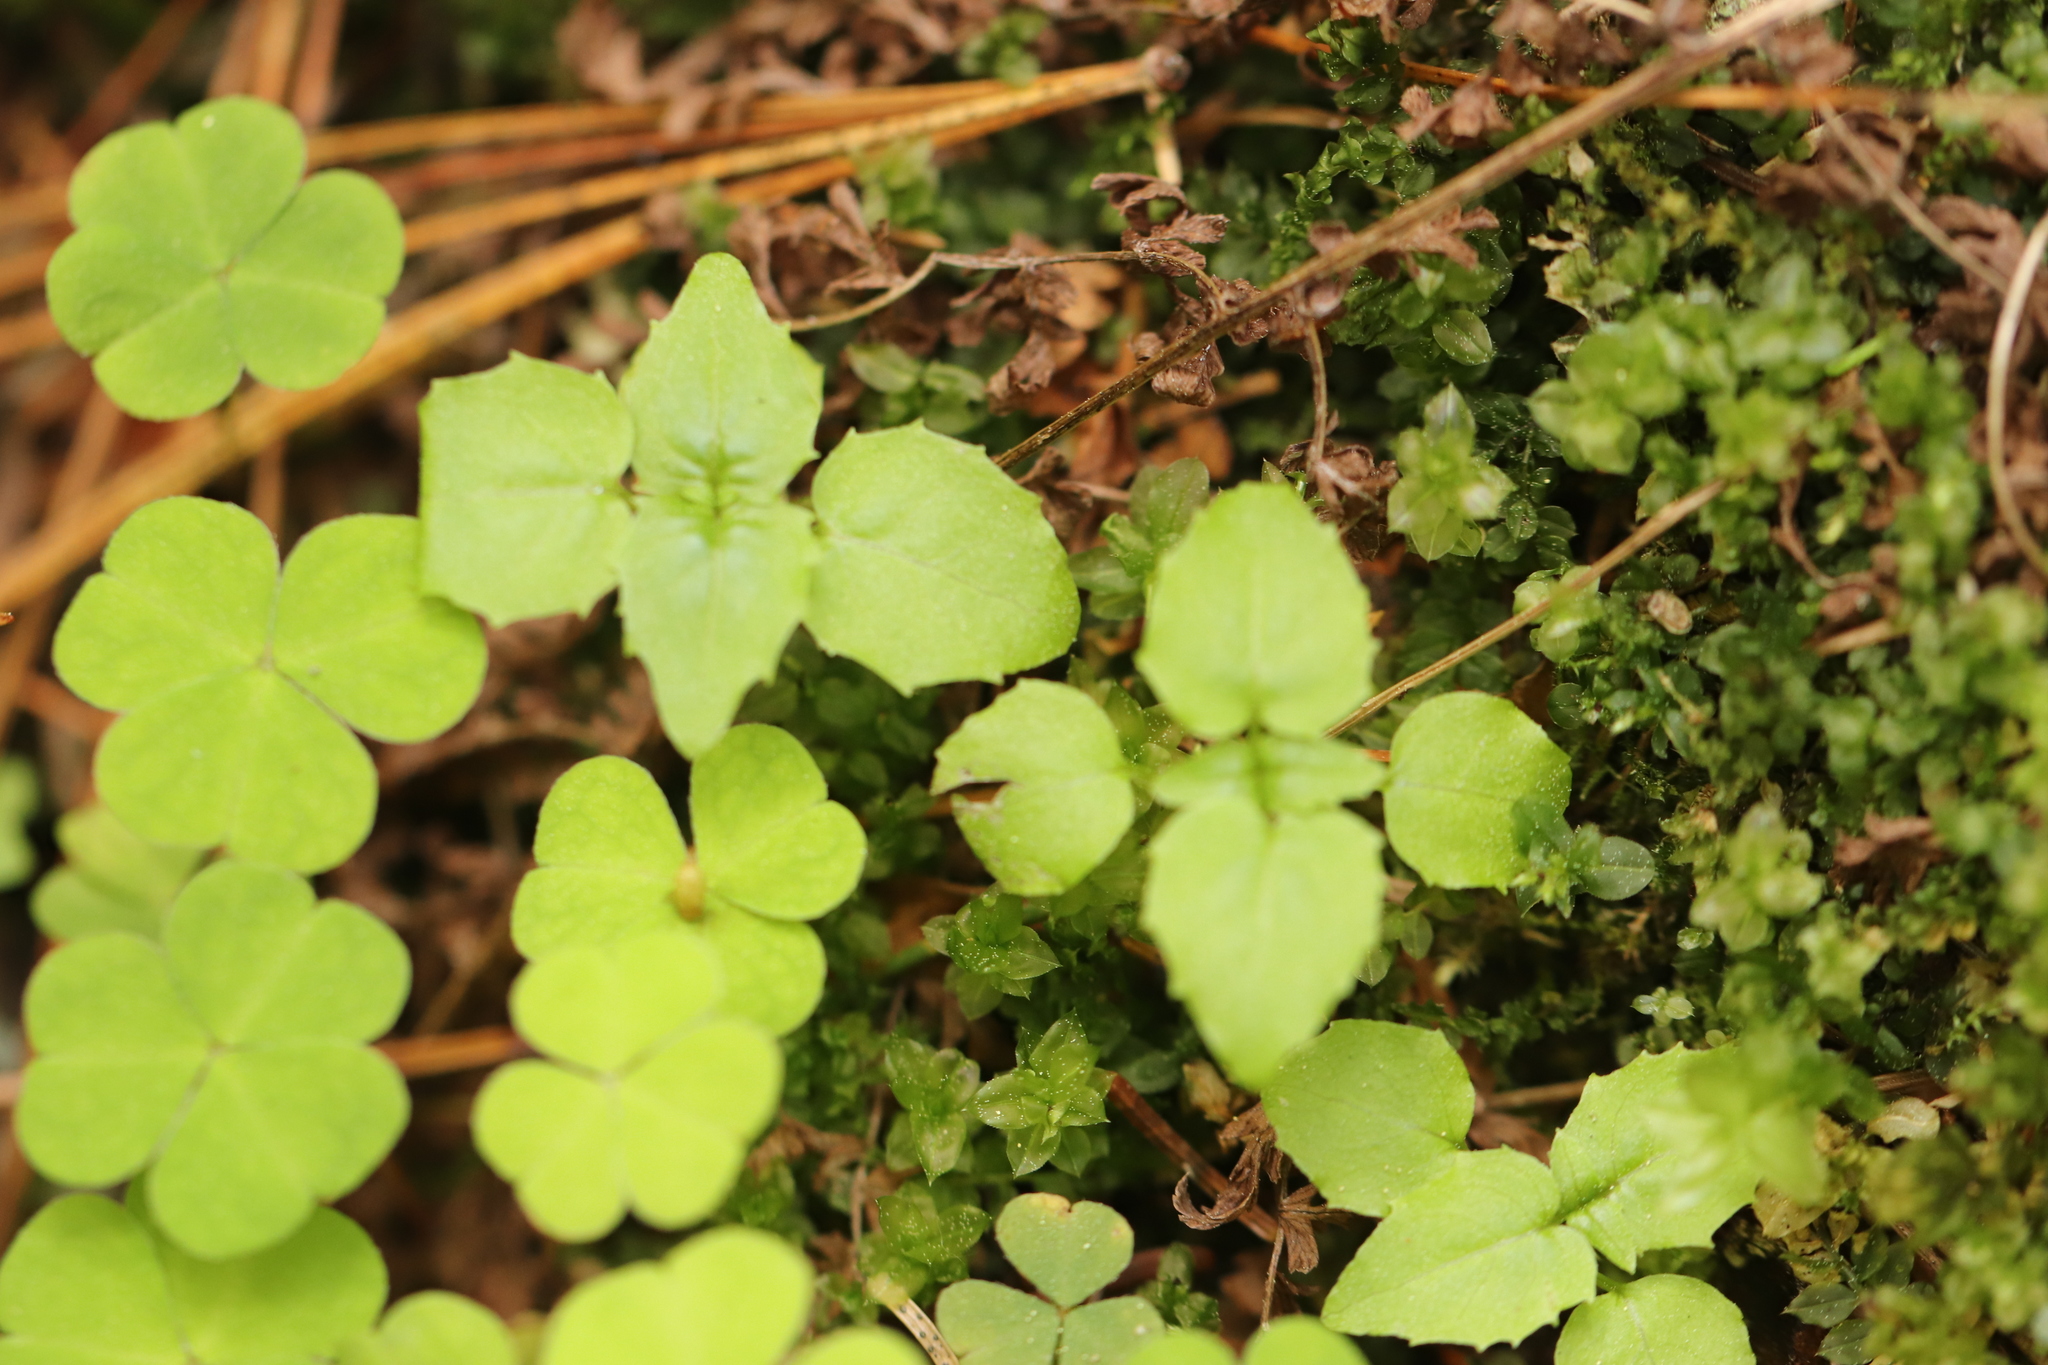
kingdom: Plantae
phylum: Tracheophyta
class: Magnoliopsida
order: Myrtales
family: Onagraceae
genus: Circaea
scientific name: Circaea alpina
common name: Alpine enchanter's-nightshade
